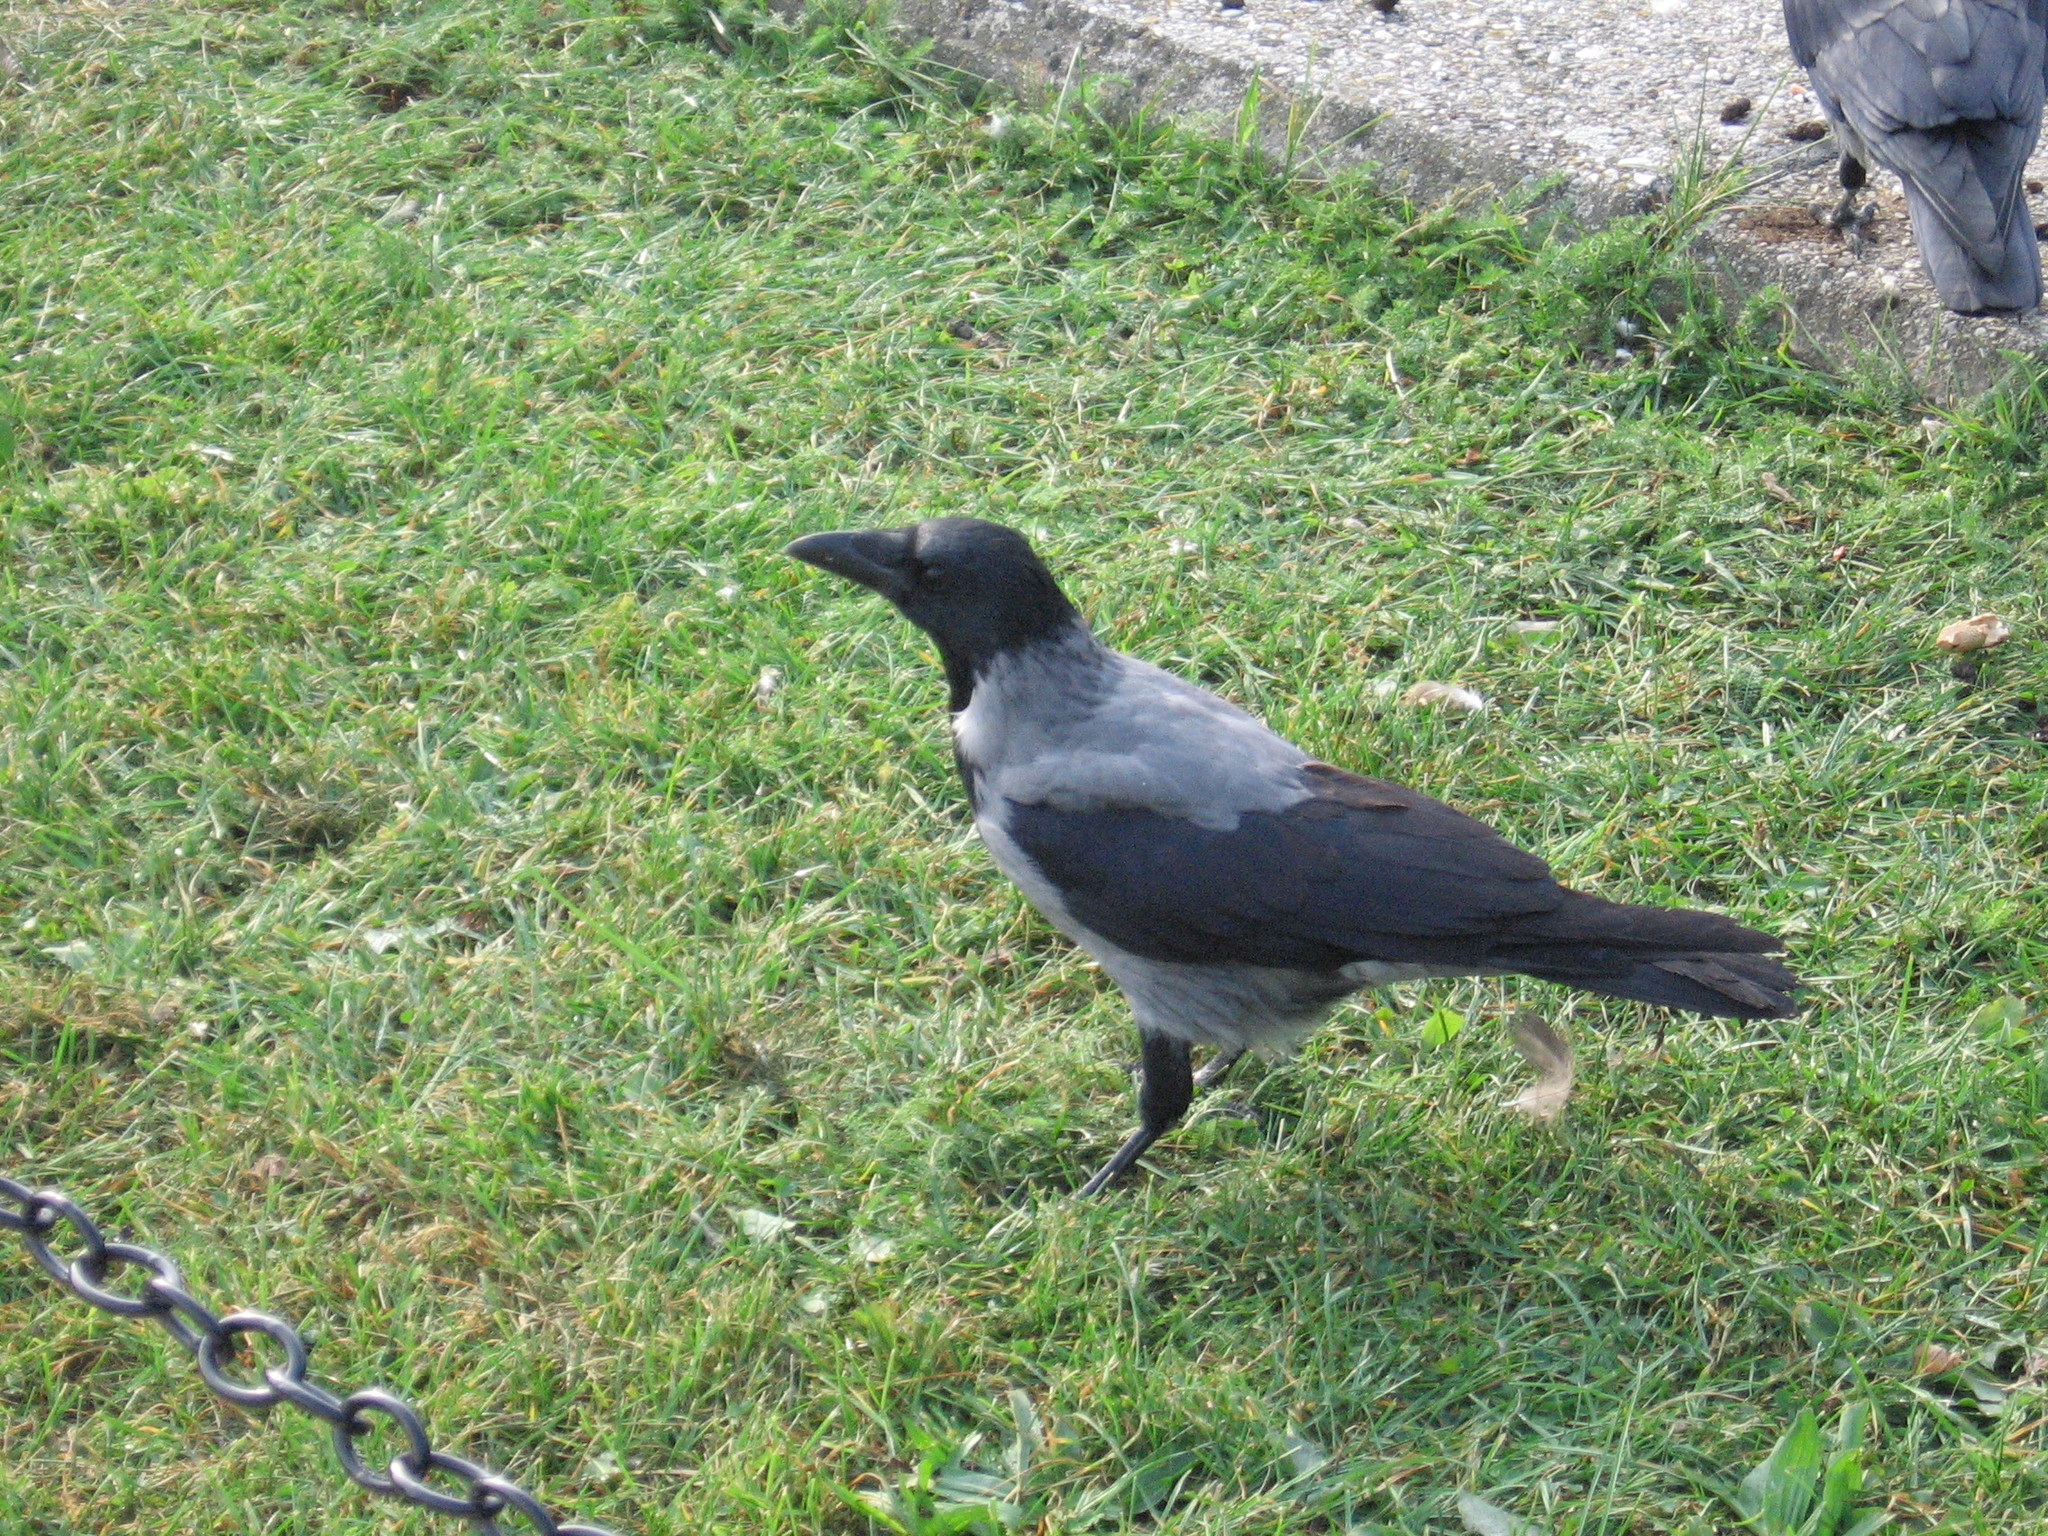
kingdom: Animalia
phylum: Chordata
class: Aves
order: Passeriformes
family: Corvidae
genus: Corvus
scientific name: Corvus cornix
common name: Hooded crow
